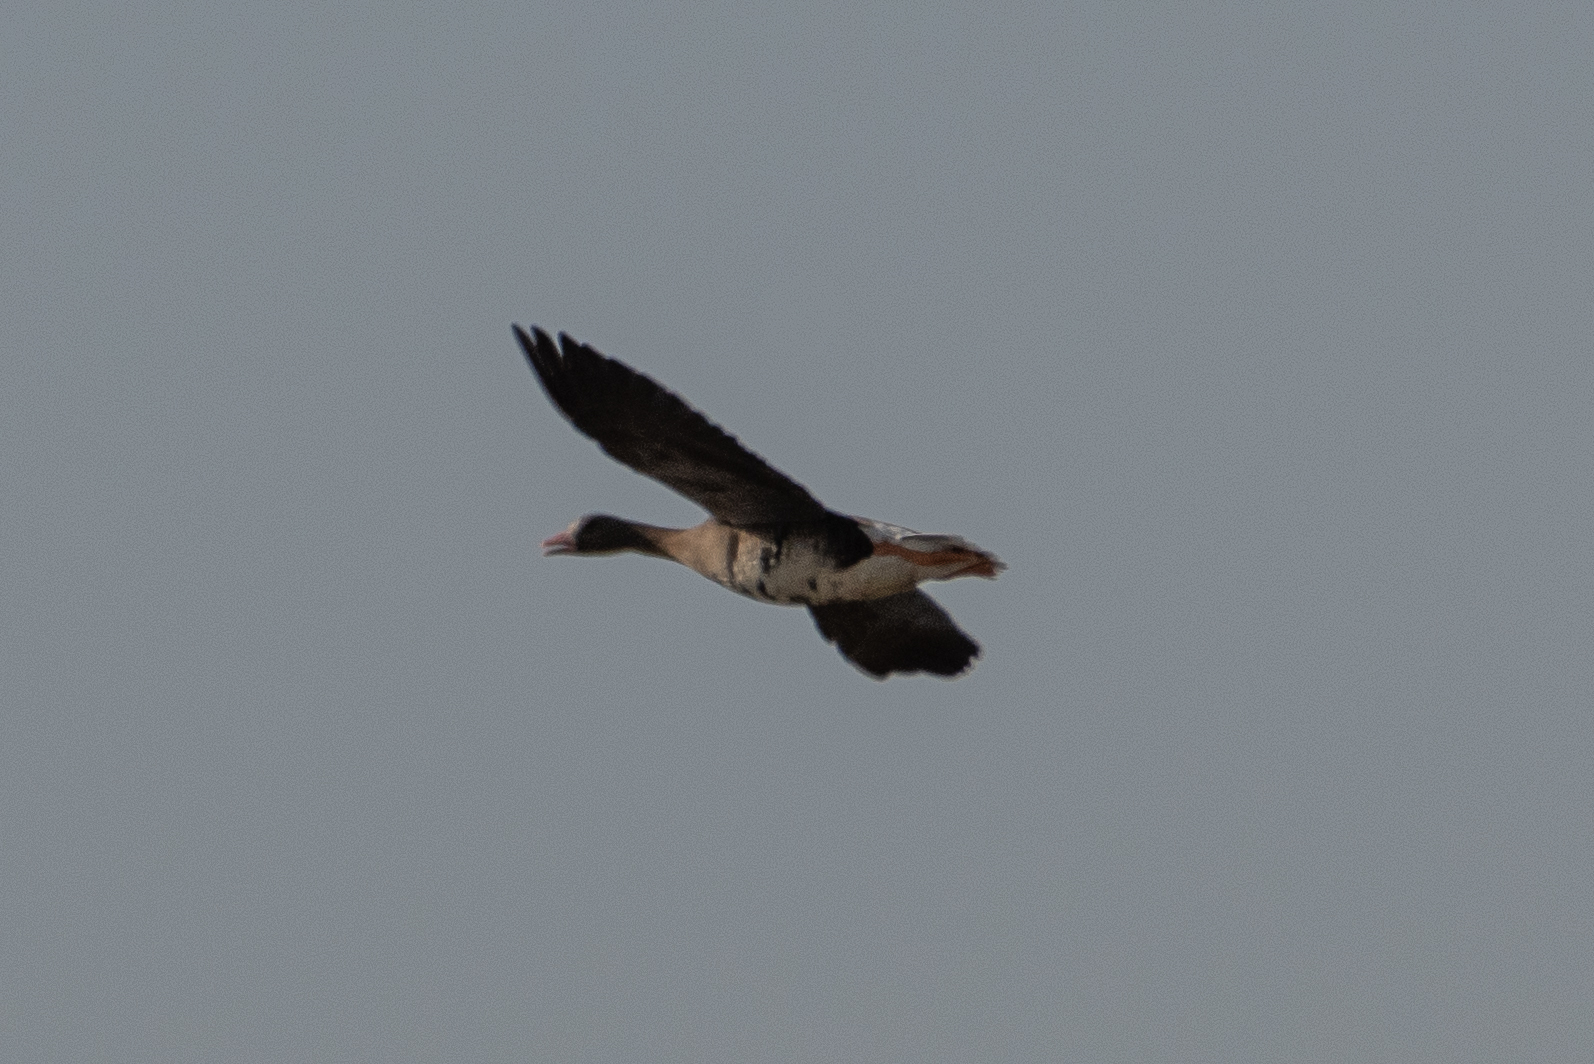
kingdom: Animalia
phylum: Chordata
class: Aves
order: Anseriformes
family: Anatidae
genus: Anser
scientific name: Anser albifrons
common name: Greater white-fronted goose
